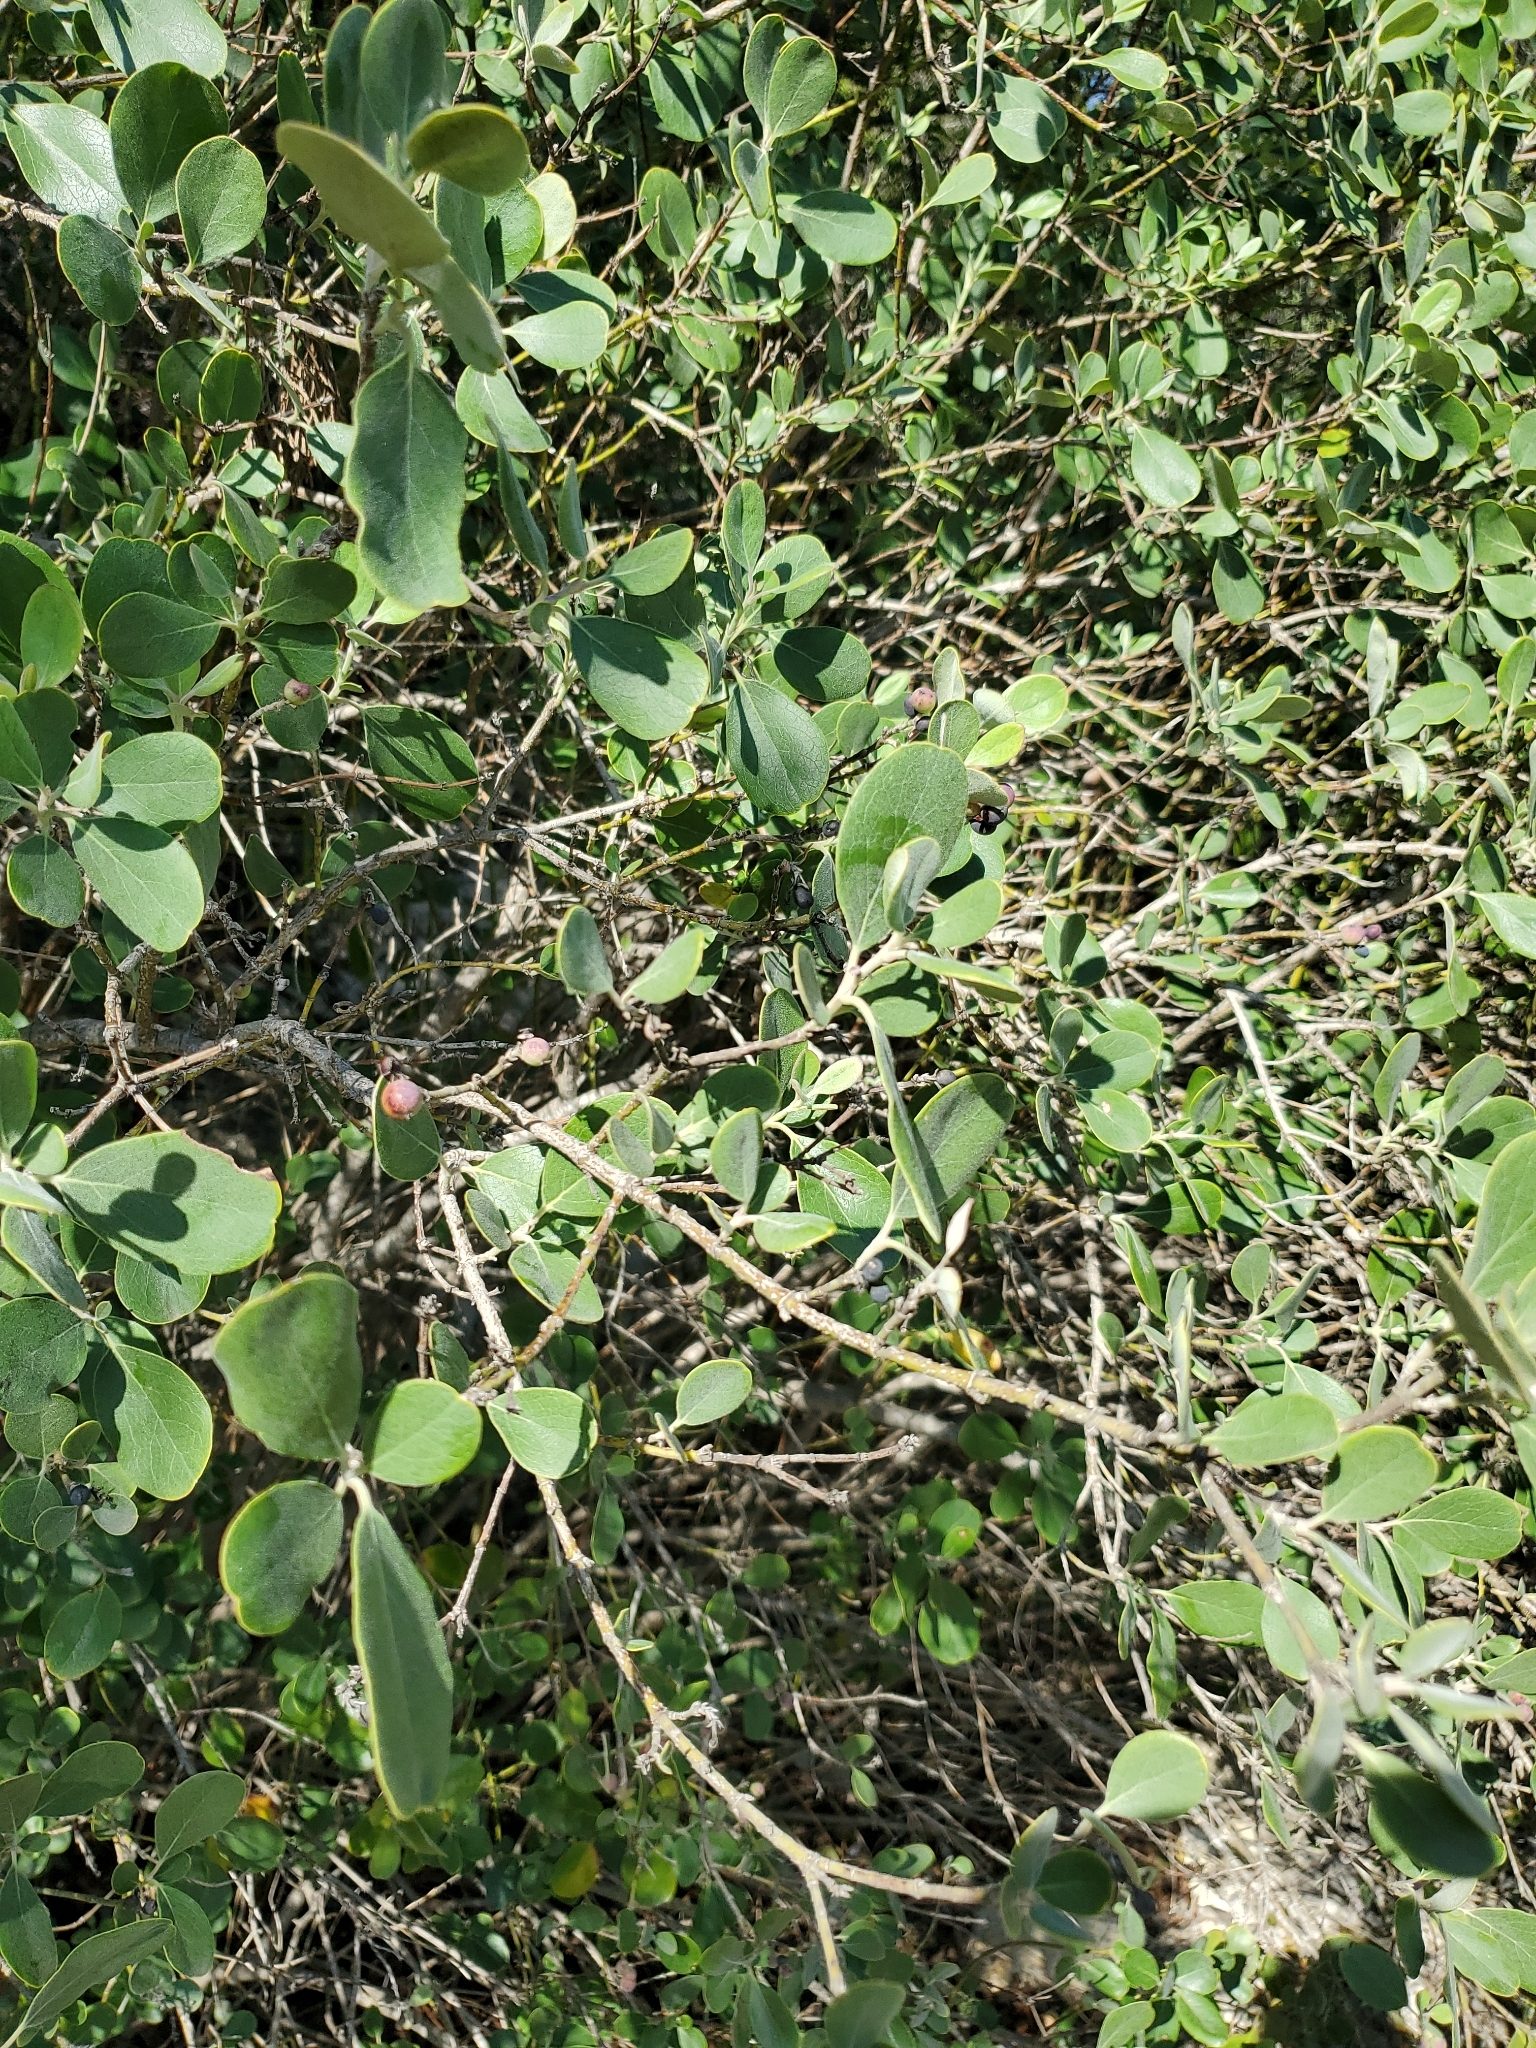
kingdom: Plantae
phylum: Tracheophyta
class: Magnoliopsida
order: Garryales
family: Garryaceae
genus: Garrya
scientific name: Garrya lindheimeri
